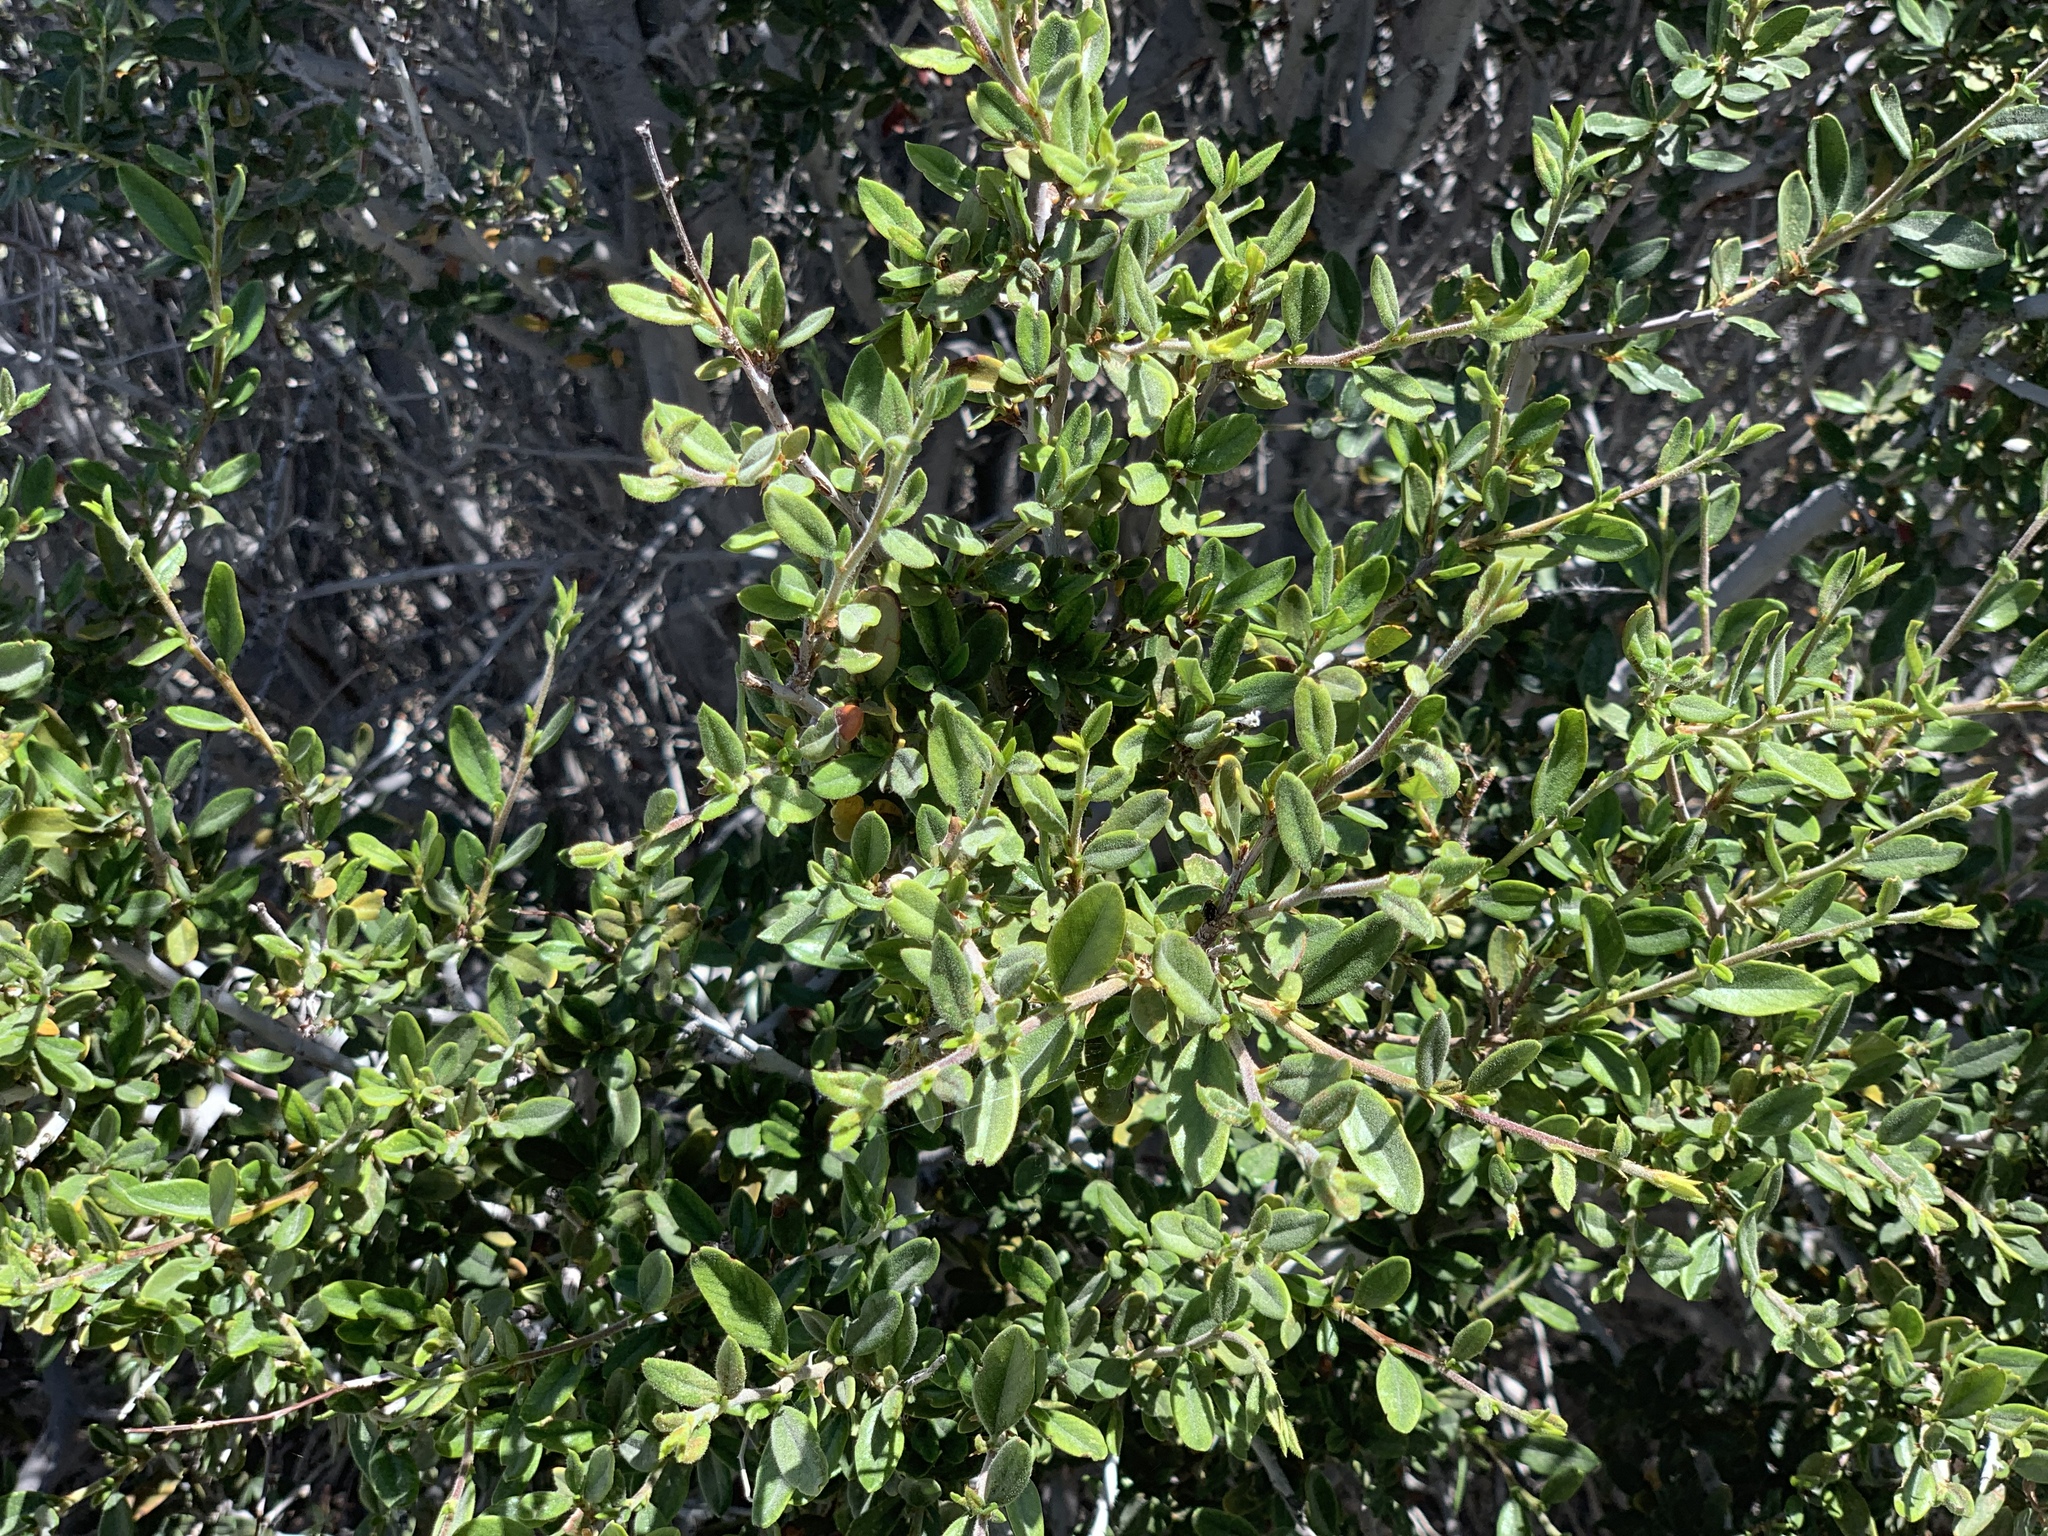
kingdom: Plantae
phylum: Tracheophyta
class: Magnoliopsida
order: Rosales
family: Rosaceae
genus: Cercocarpus
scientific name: Cercocarpus ledifolius
